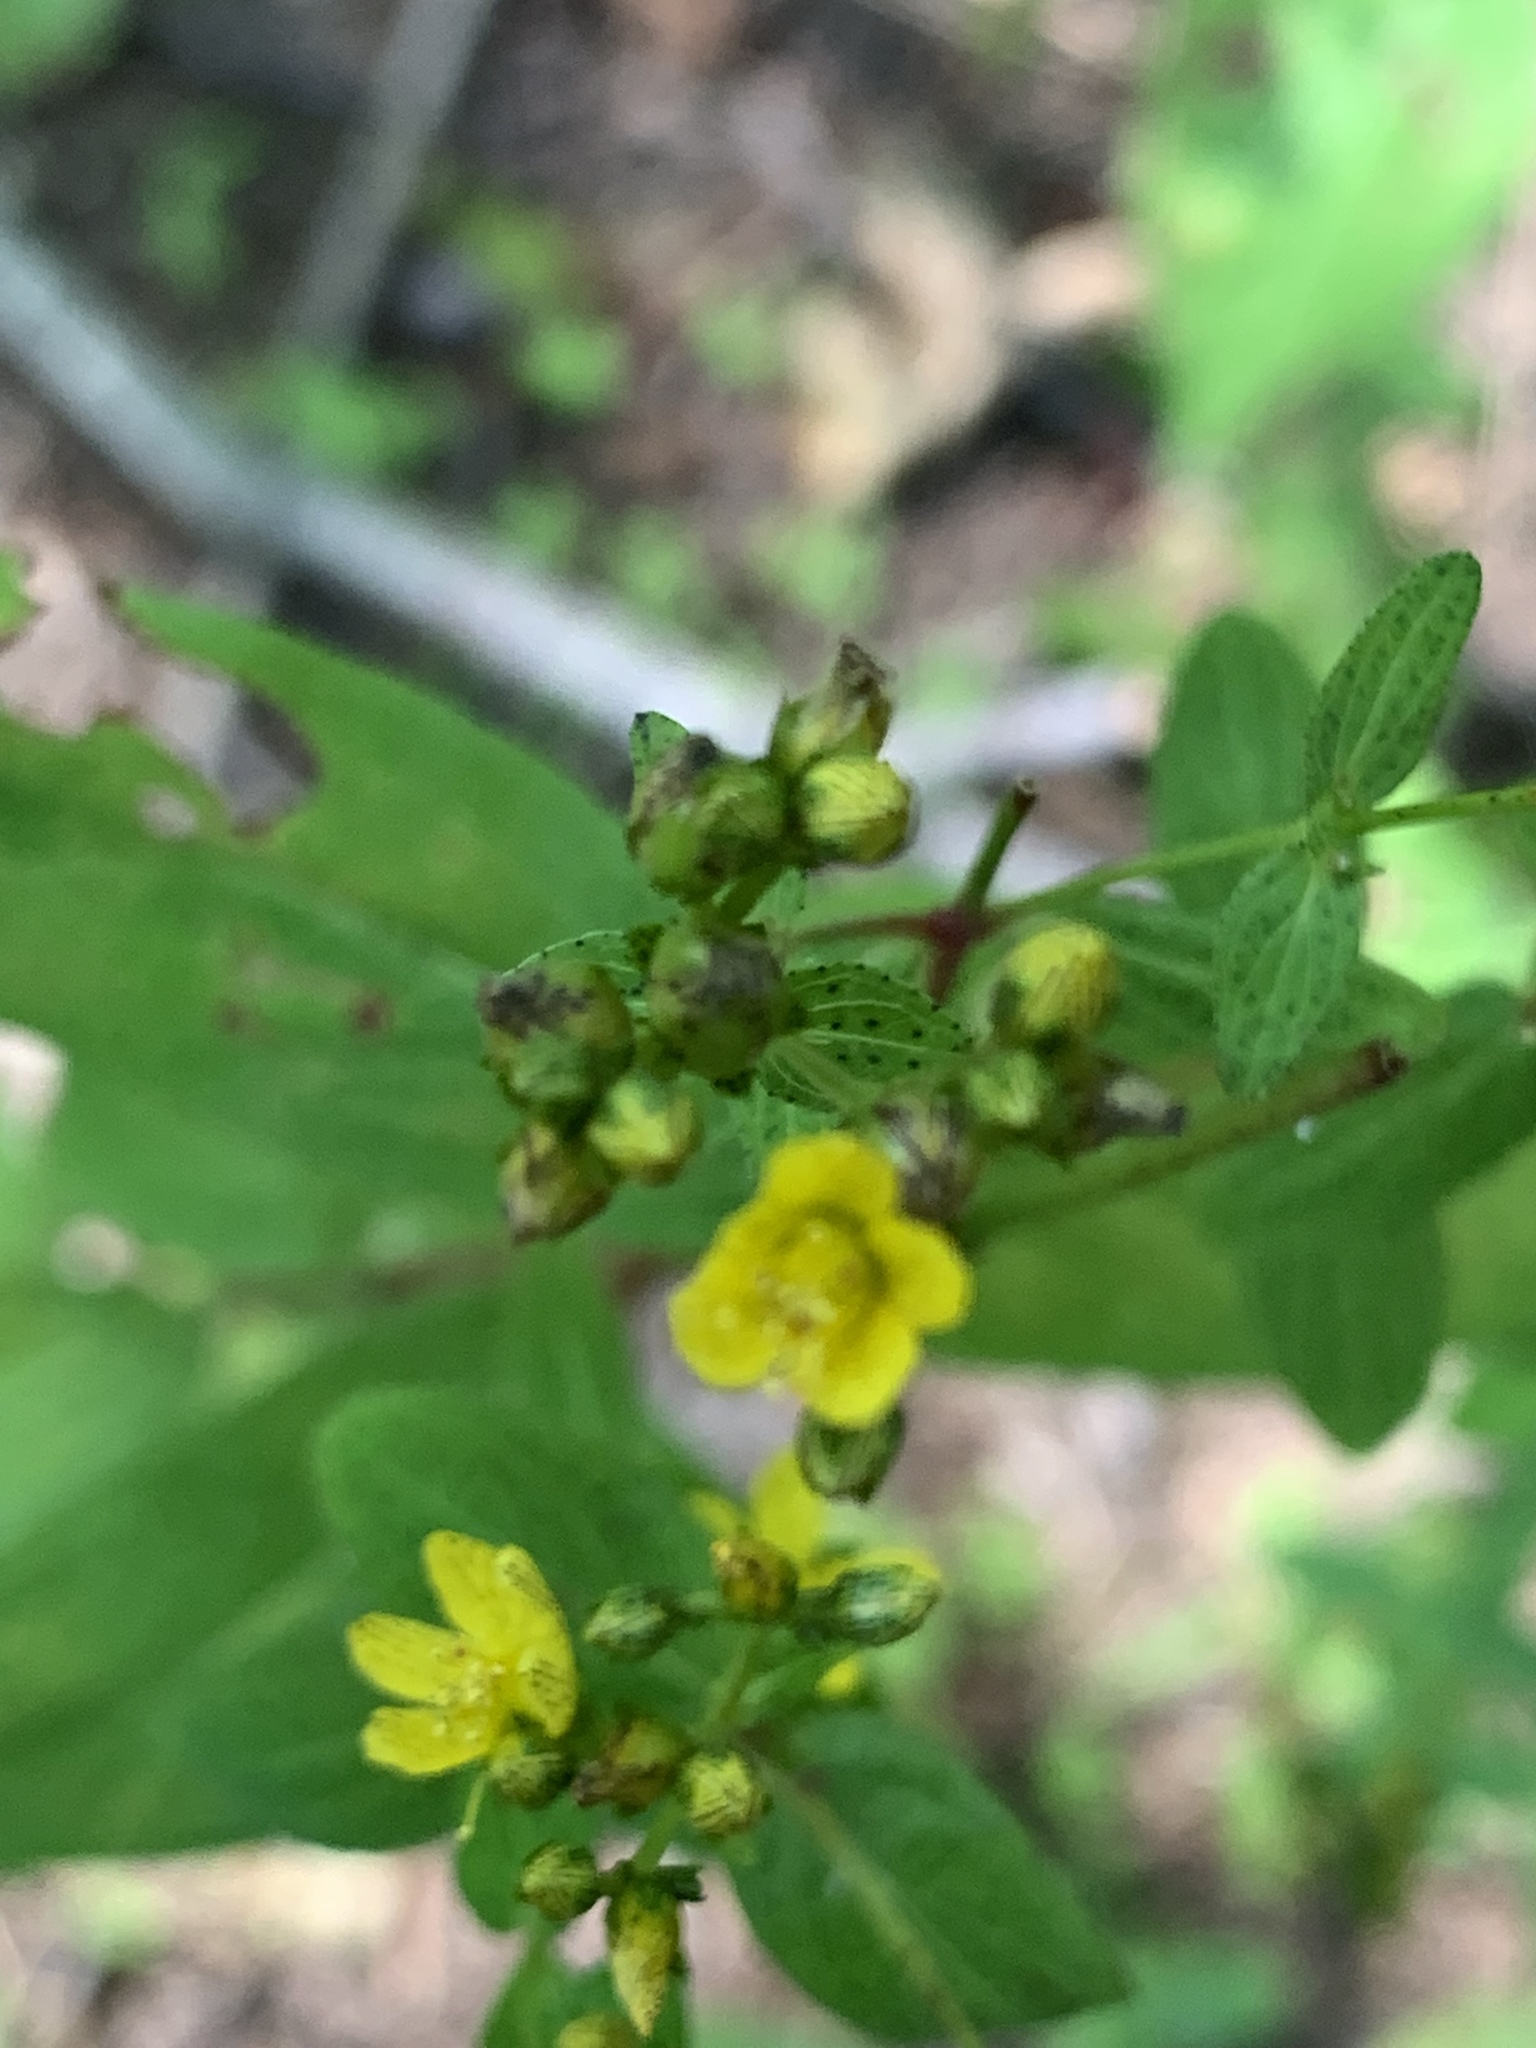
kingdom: Plantae
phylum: Tracheophyta
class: Magnoliopsida
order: Malpighiales
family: Hypericaceae
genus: Hypericum
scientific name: Hypericum punctatum
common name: Spotted st. john's-wort
